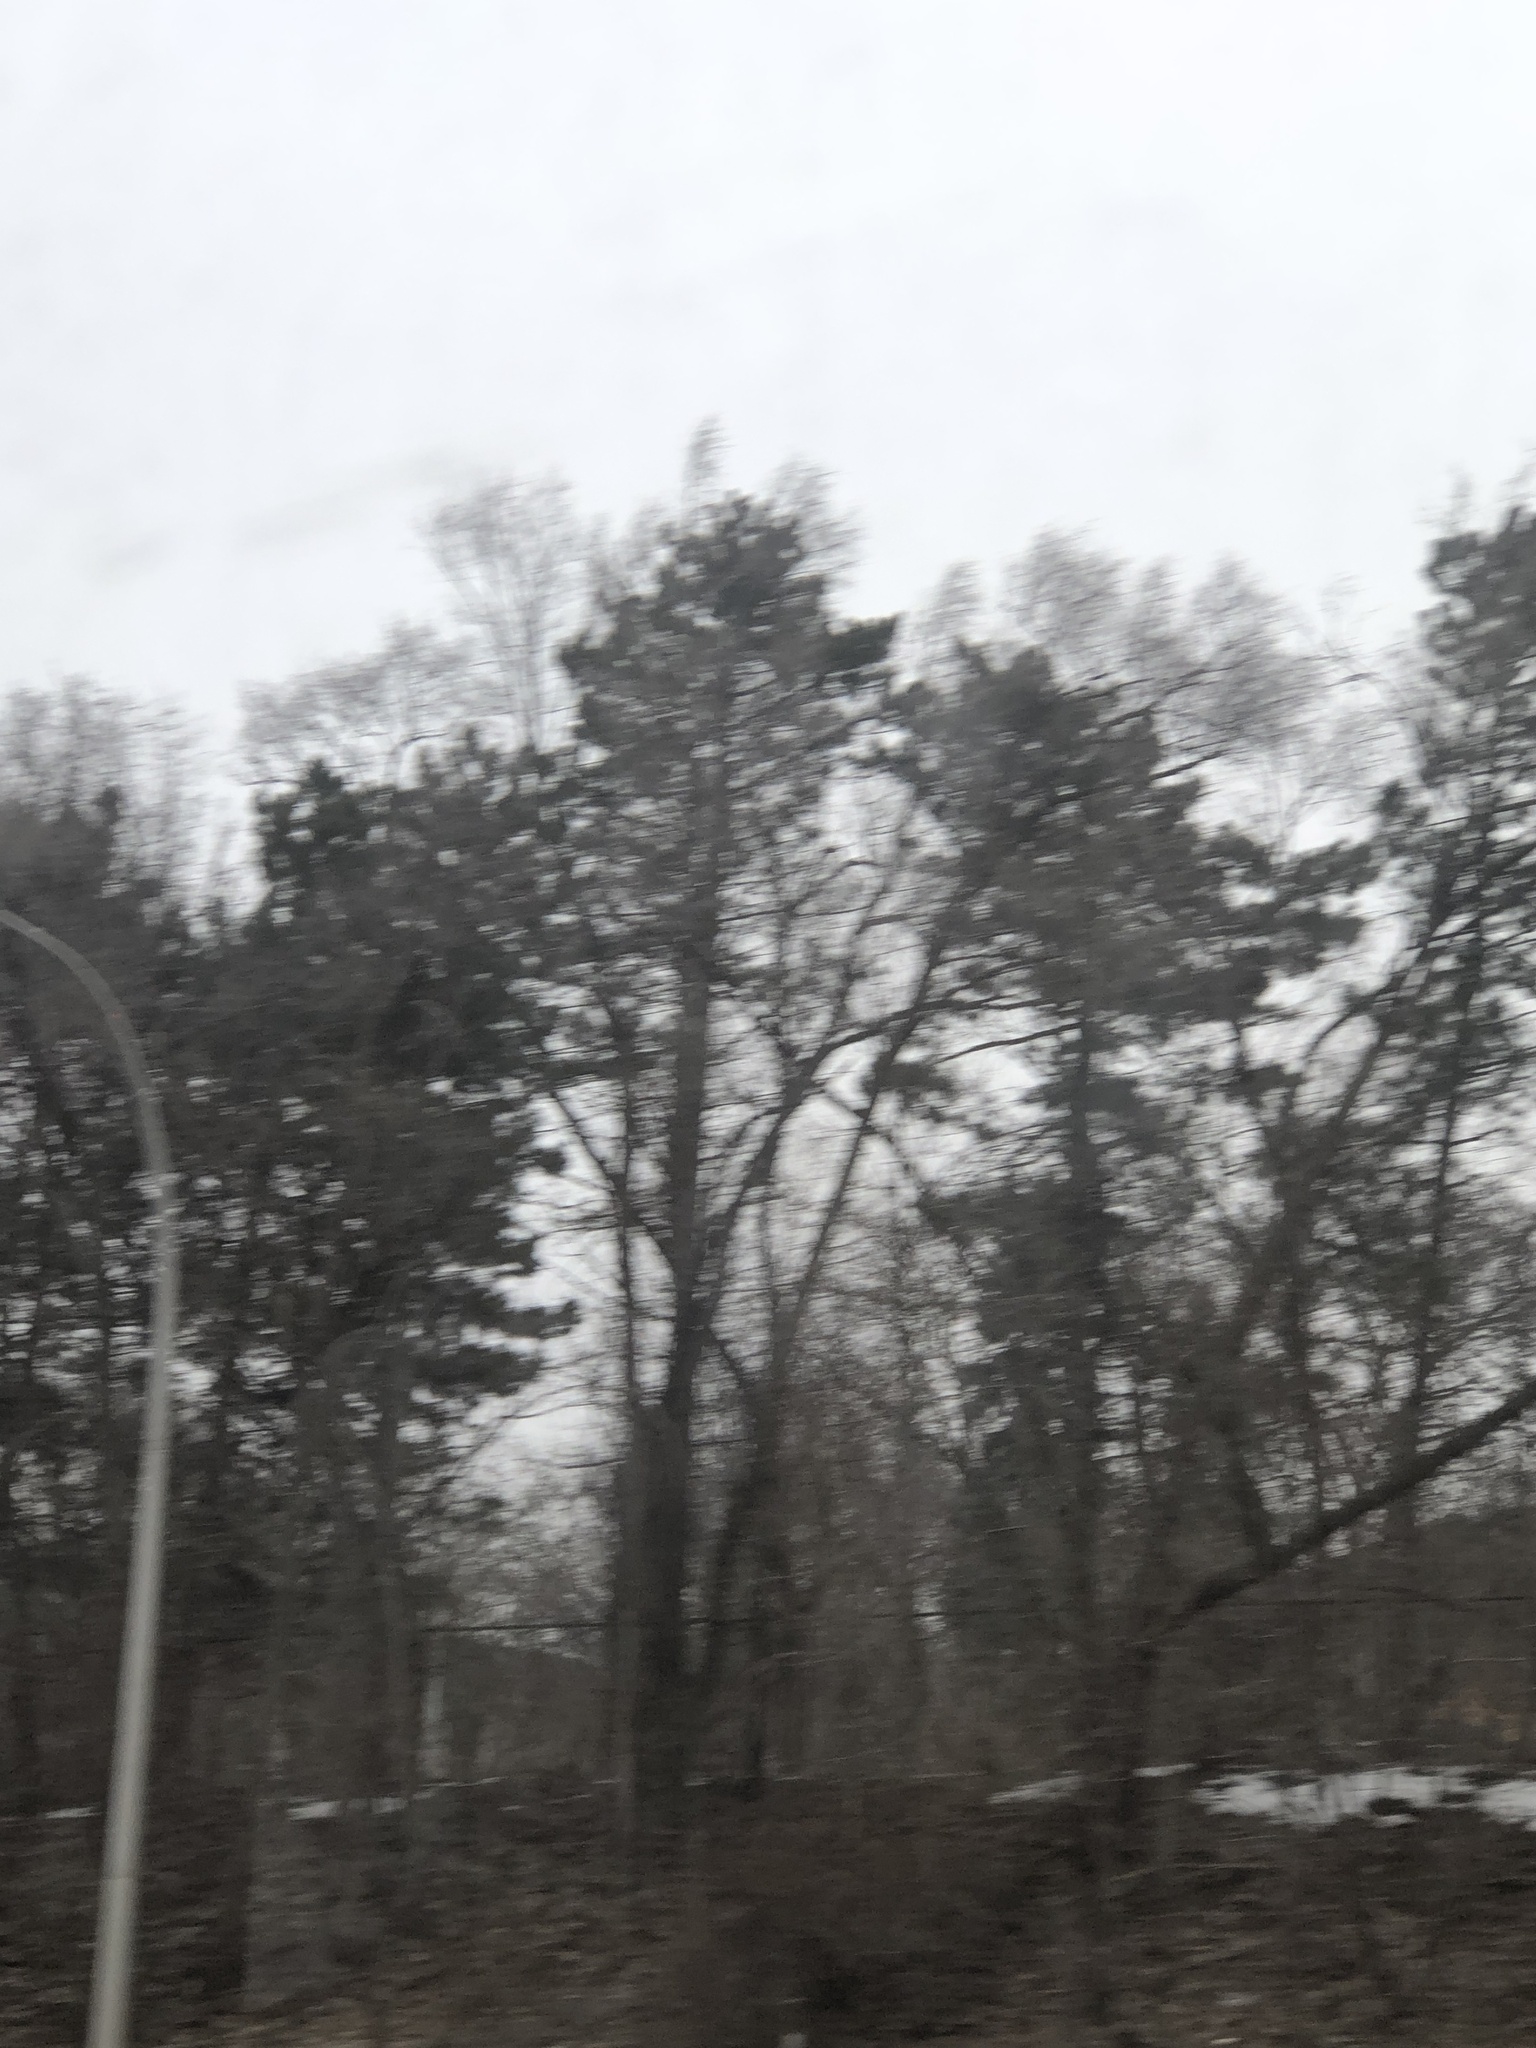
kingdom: Plantae
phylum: Tracheophyta
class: Pinopsida
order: Pinales
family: Pinaceae
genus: Pinus
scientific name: Pinus strobus
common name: Weymouth pine
